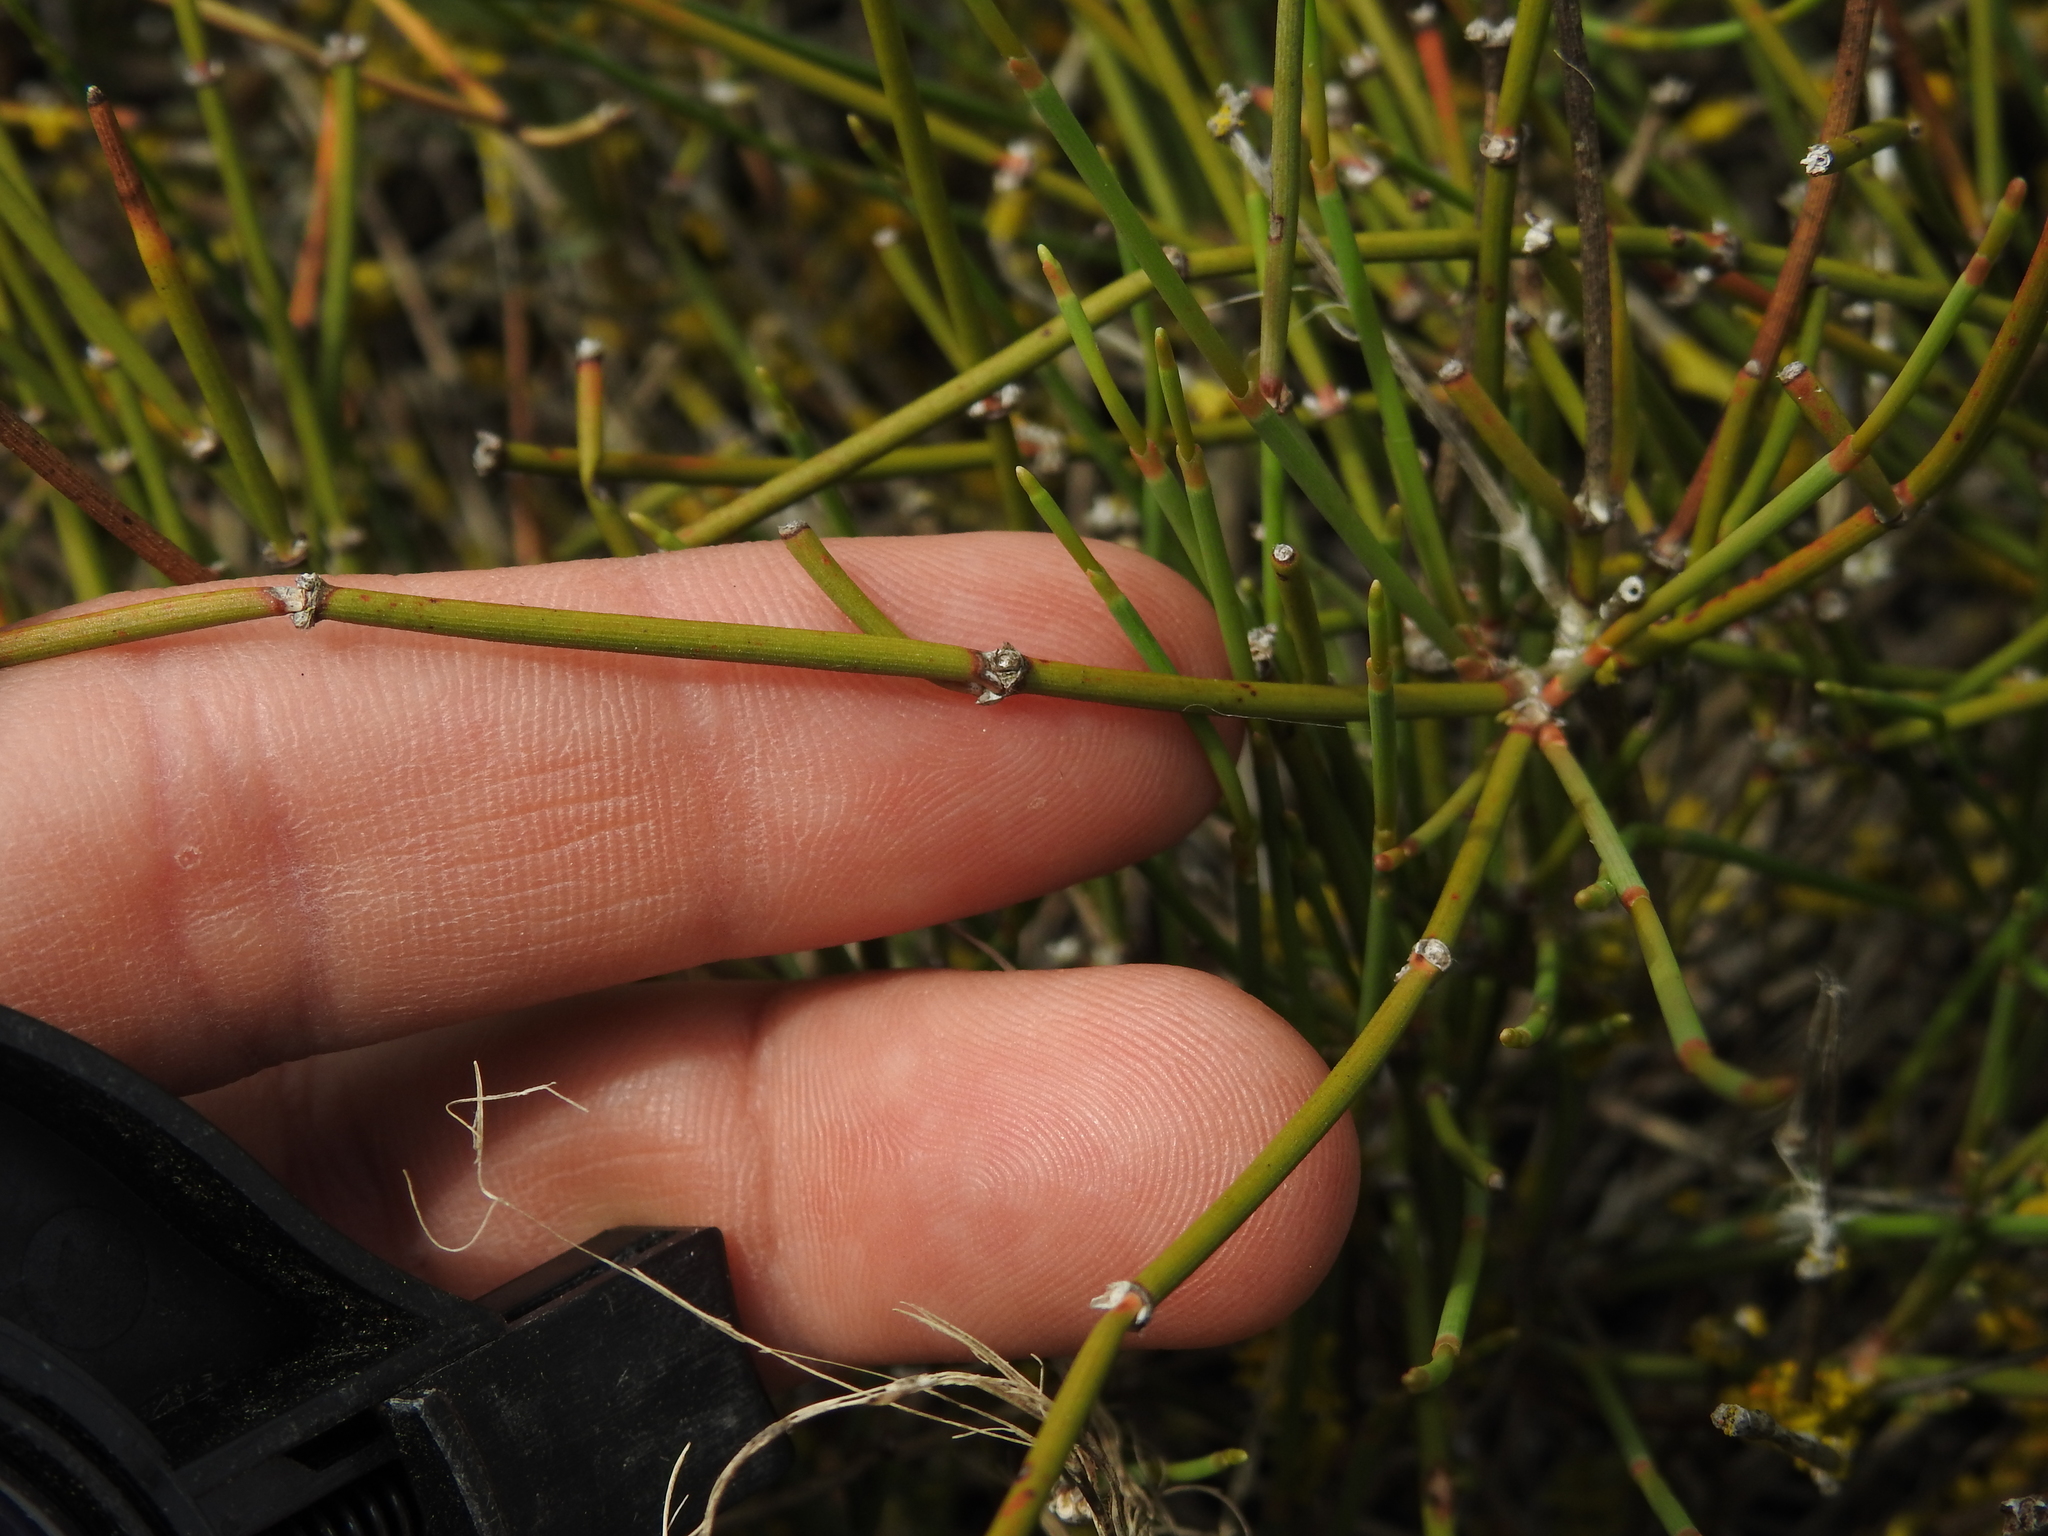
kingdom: Plantae
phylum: Tracheophyta
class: Gnetopsida
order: Ephedrales
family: Ephedraceae
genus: Ephedra
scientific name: Ephedra distachya
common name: Sea grape
